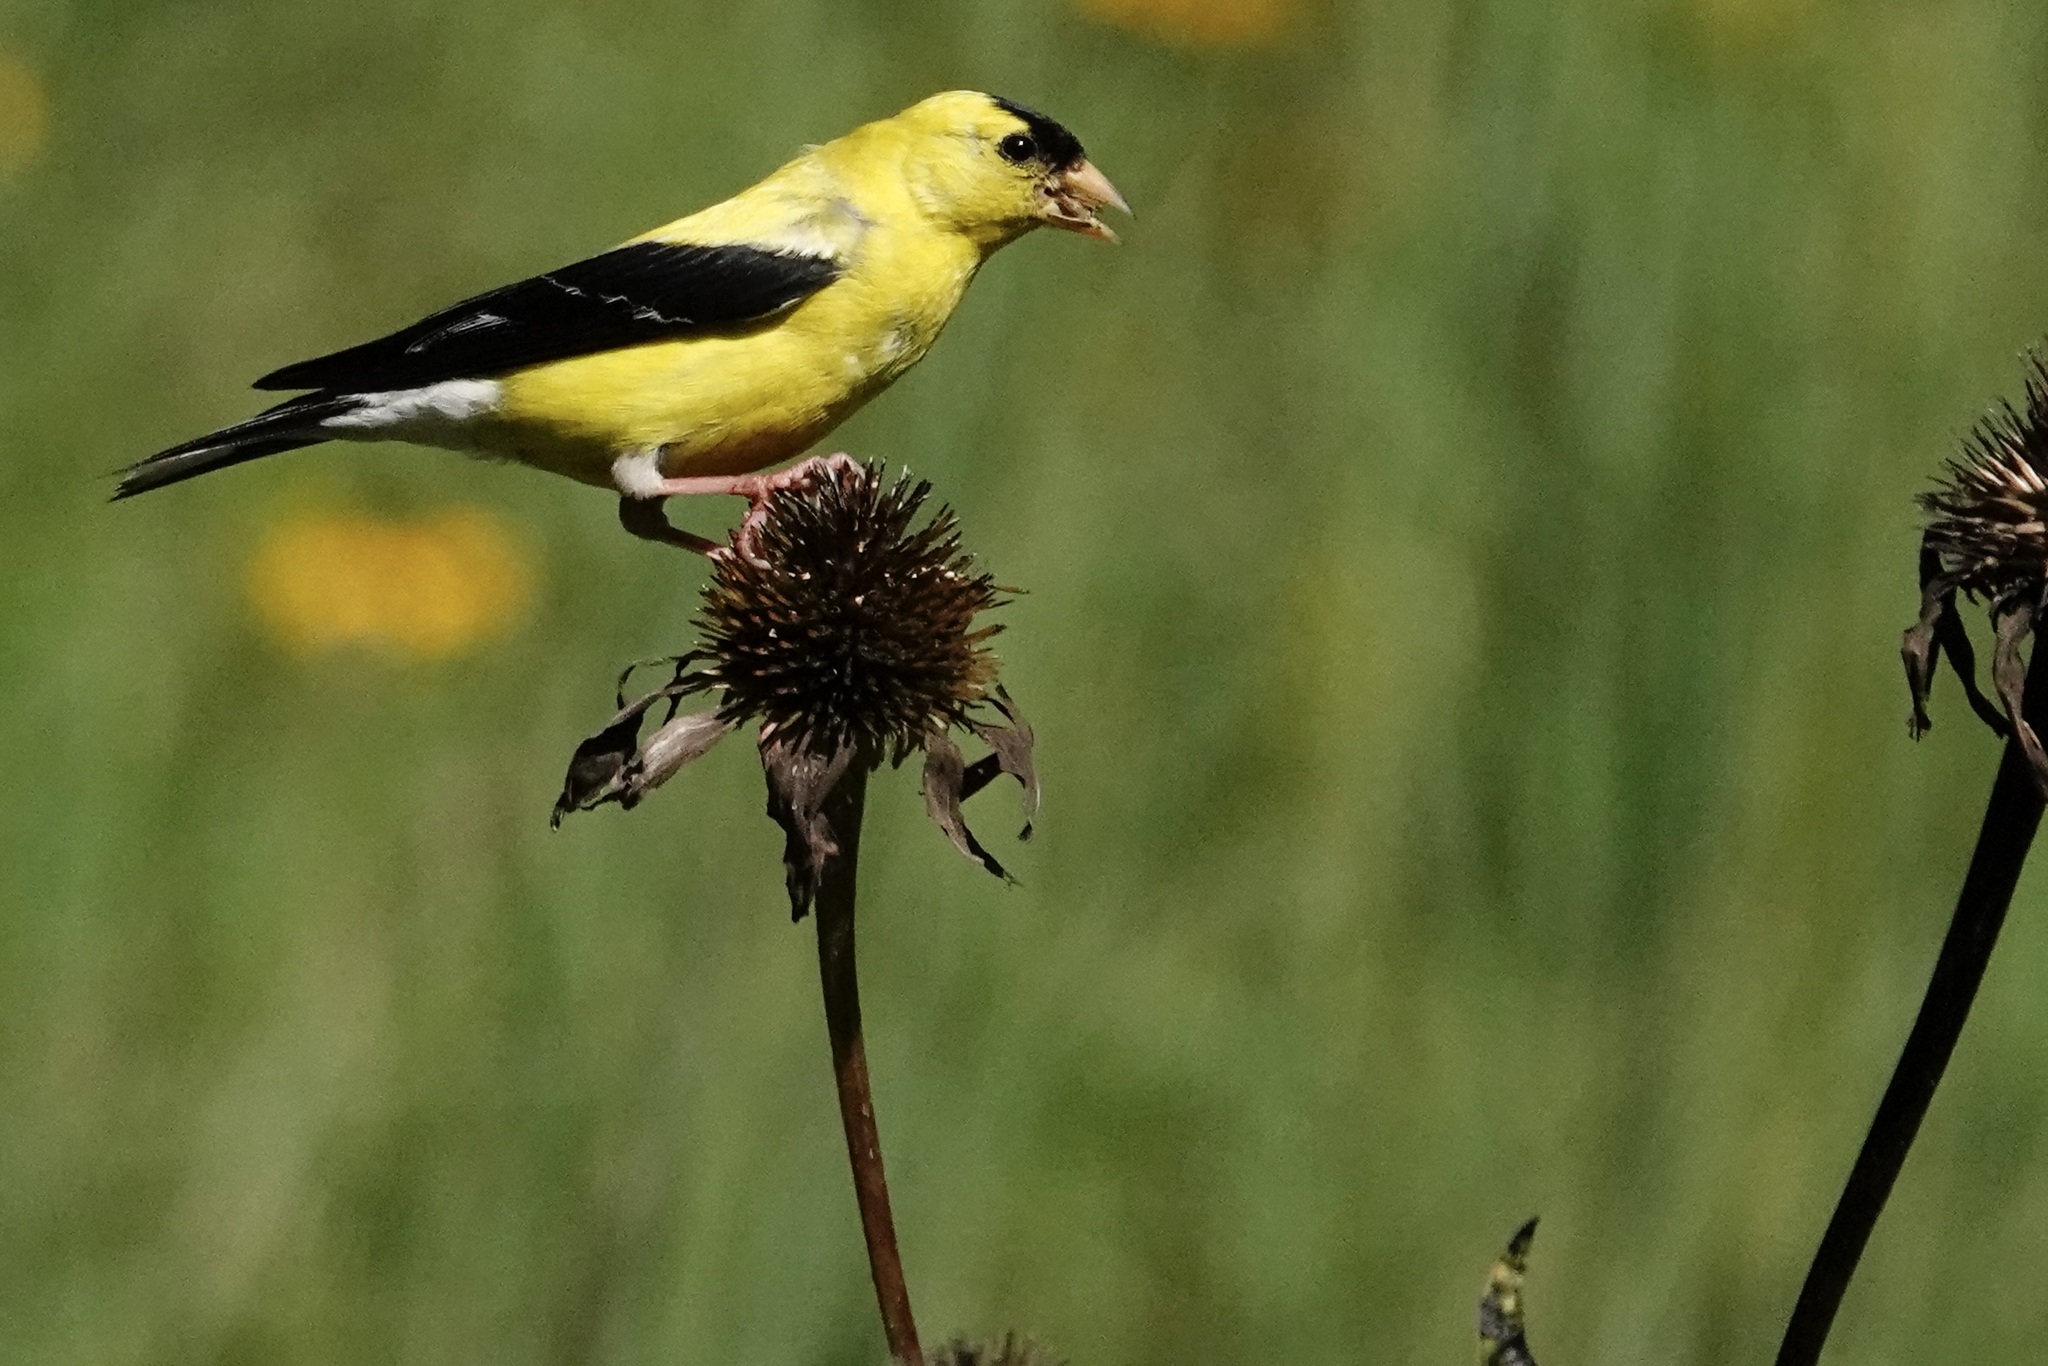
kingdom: Animalia
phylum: Chordata
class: Aves
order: Passeriformes
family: Fringillidae
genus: Spinus
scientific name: Spinus tristis
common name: American goldfinch
